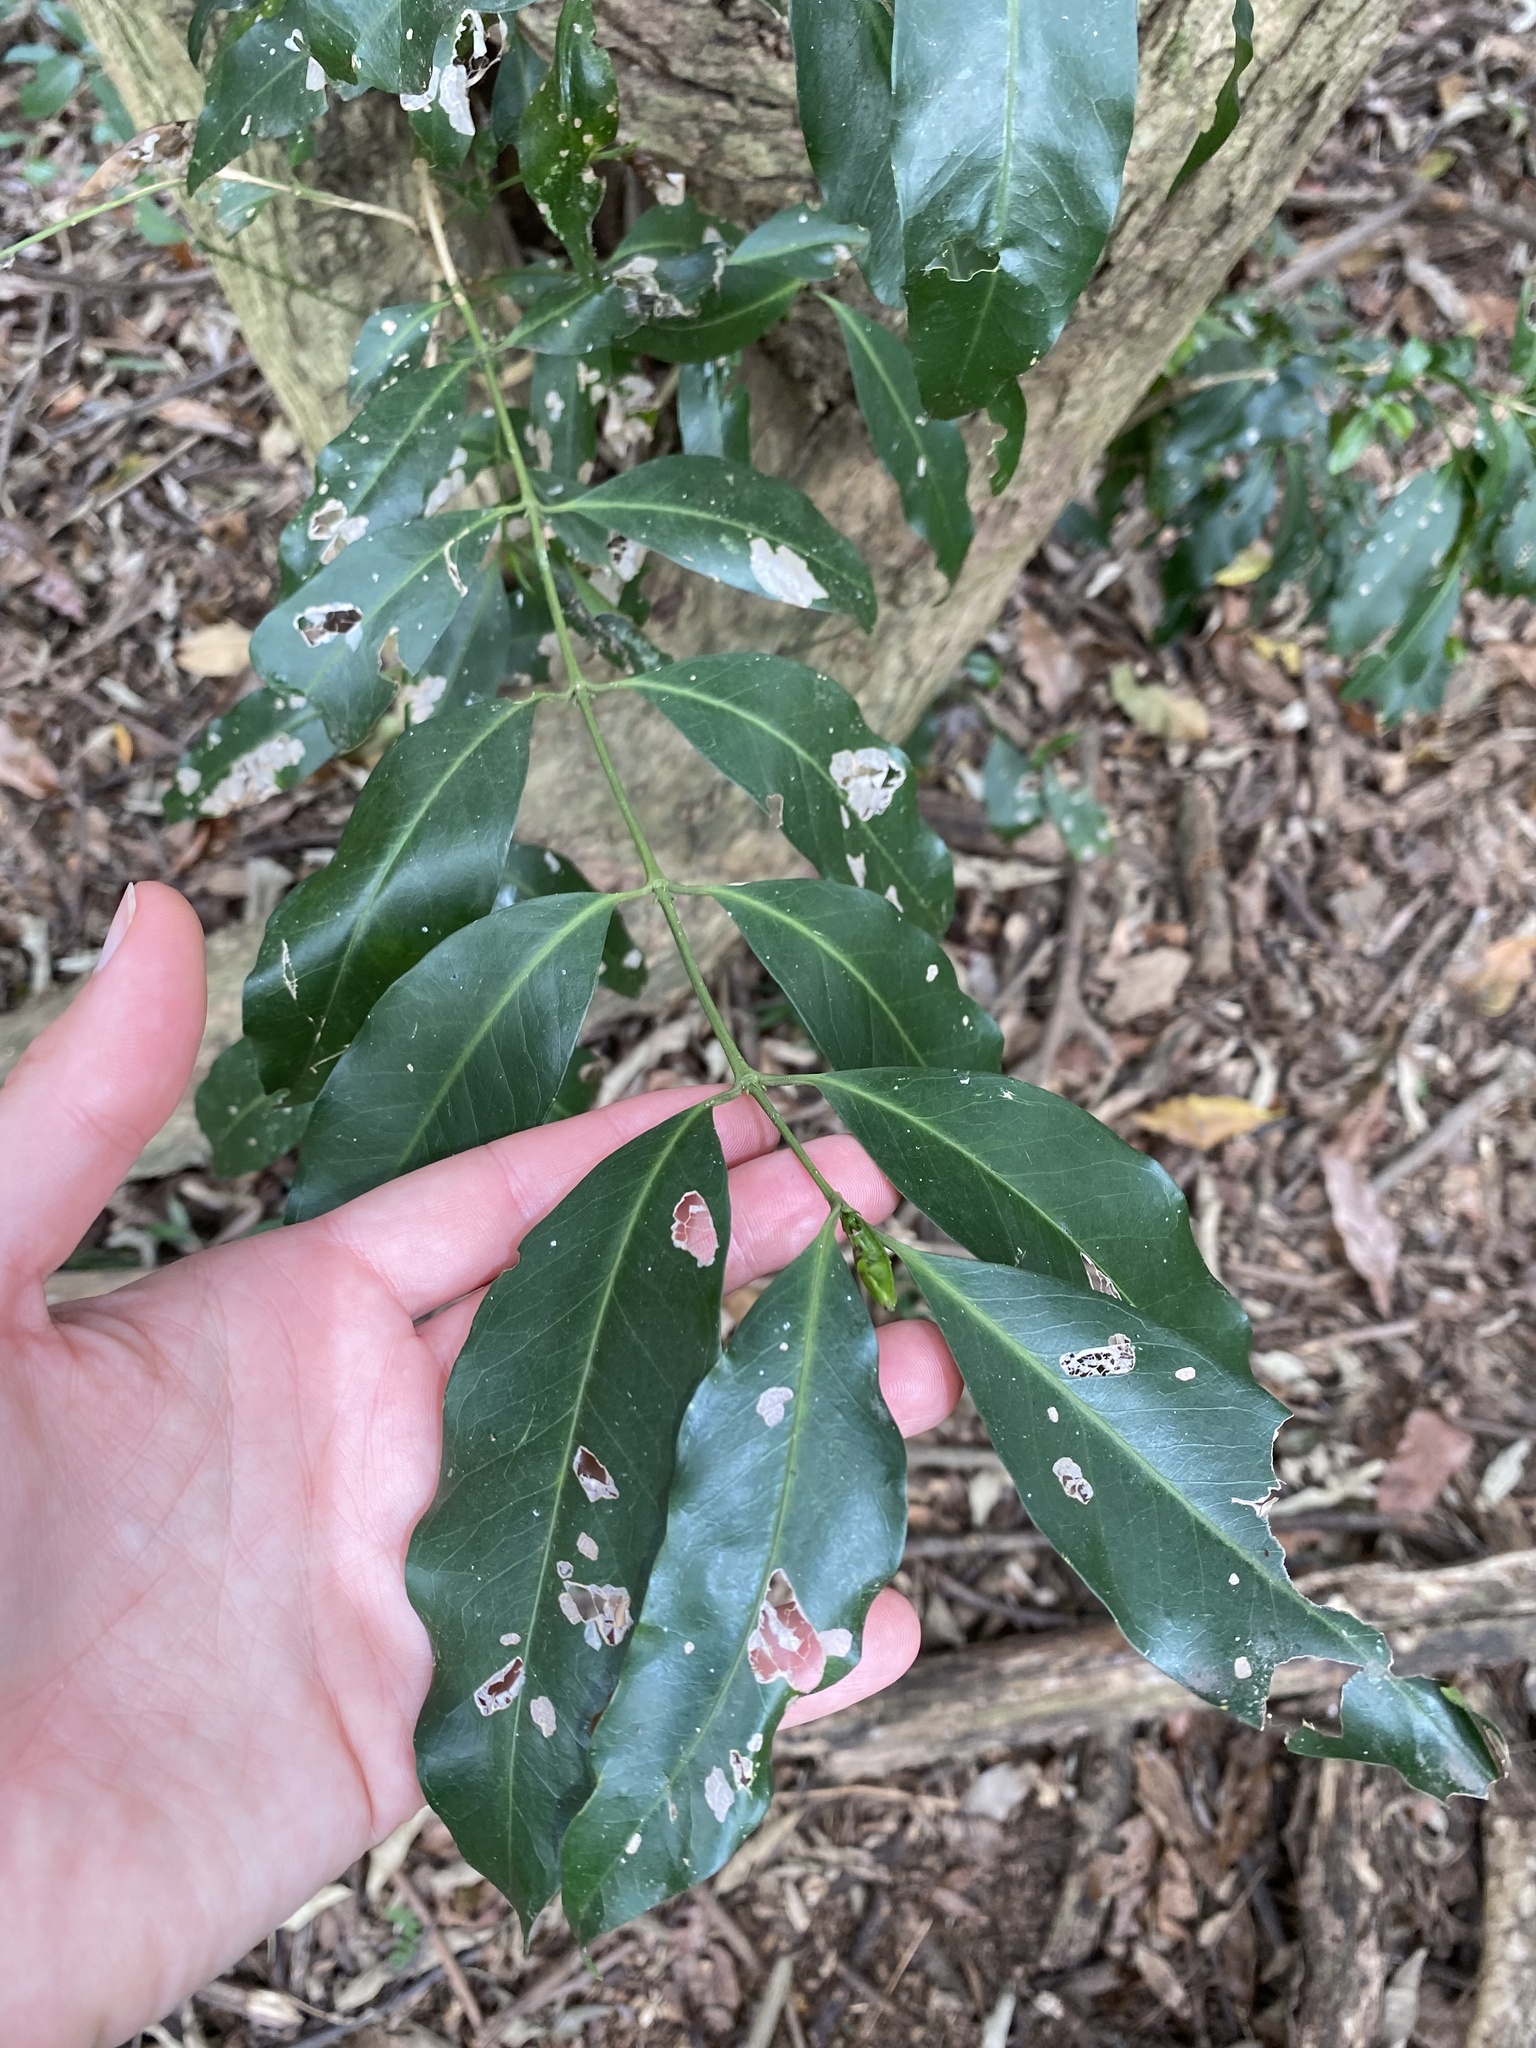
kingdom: Plantae
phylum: Tracheophyta
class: Magnoliopsida
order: Gentianales
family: Rubiaceae
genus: Empogona
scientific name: Empogona lanceolata
